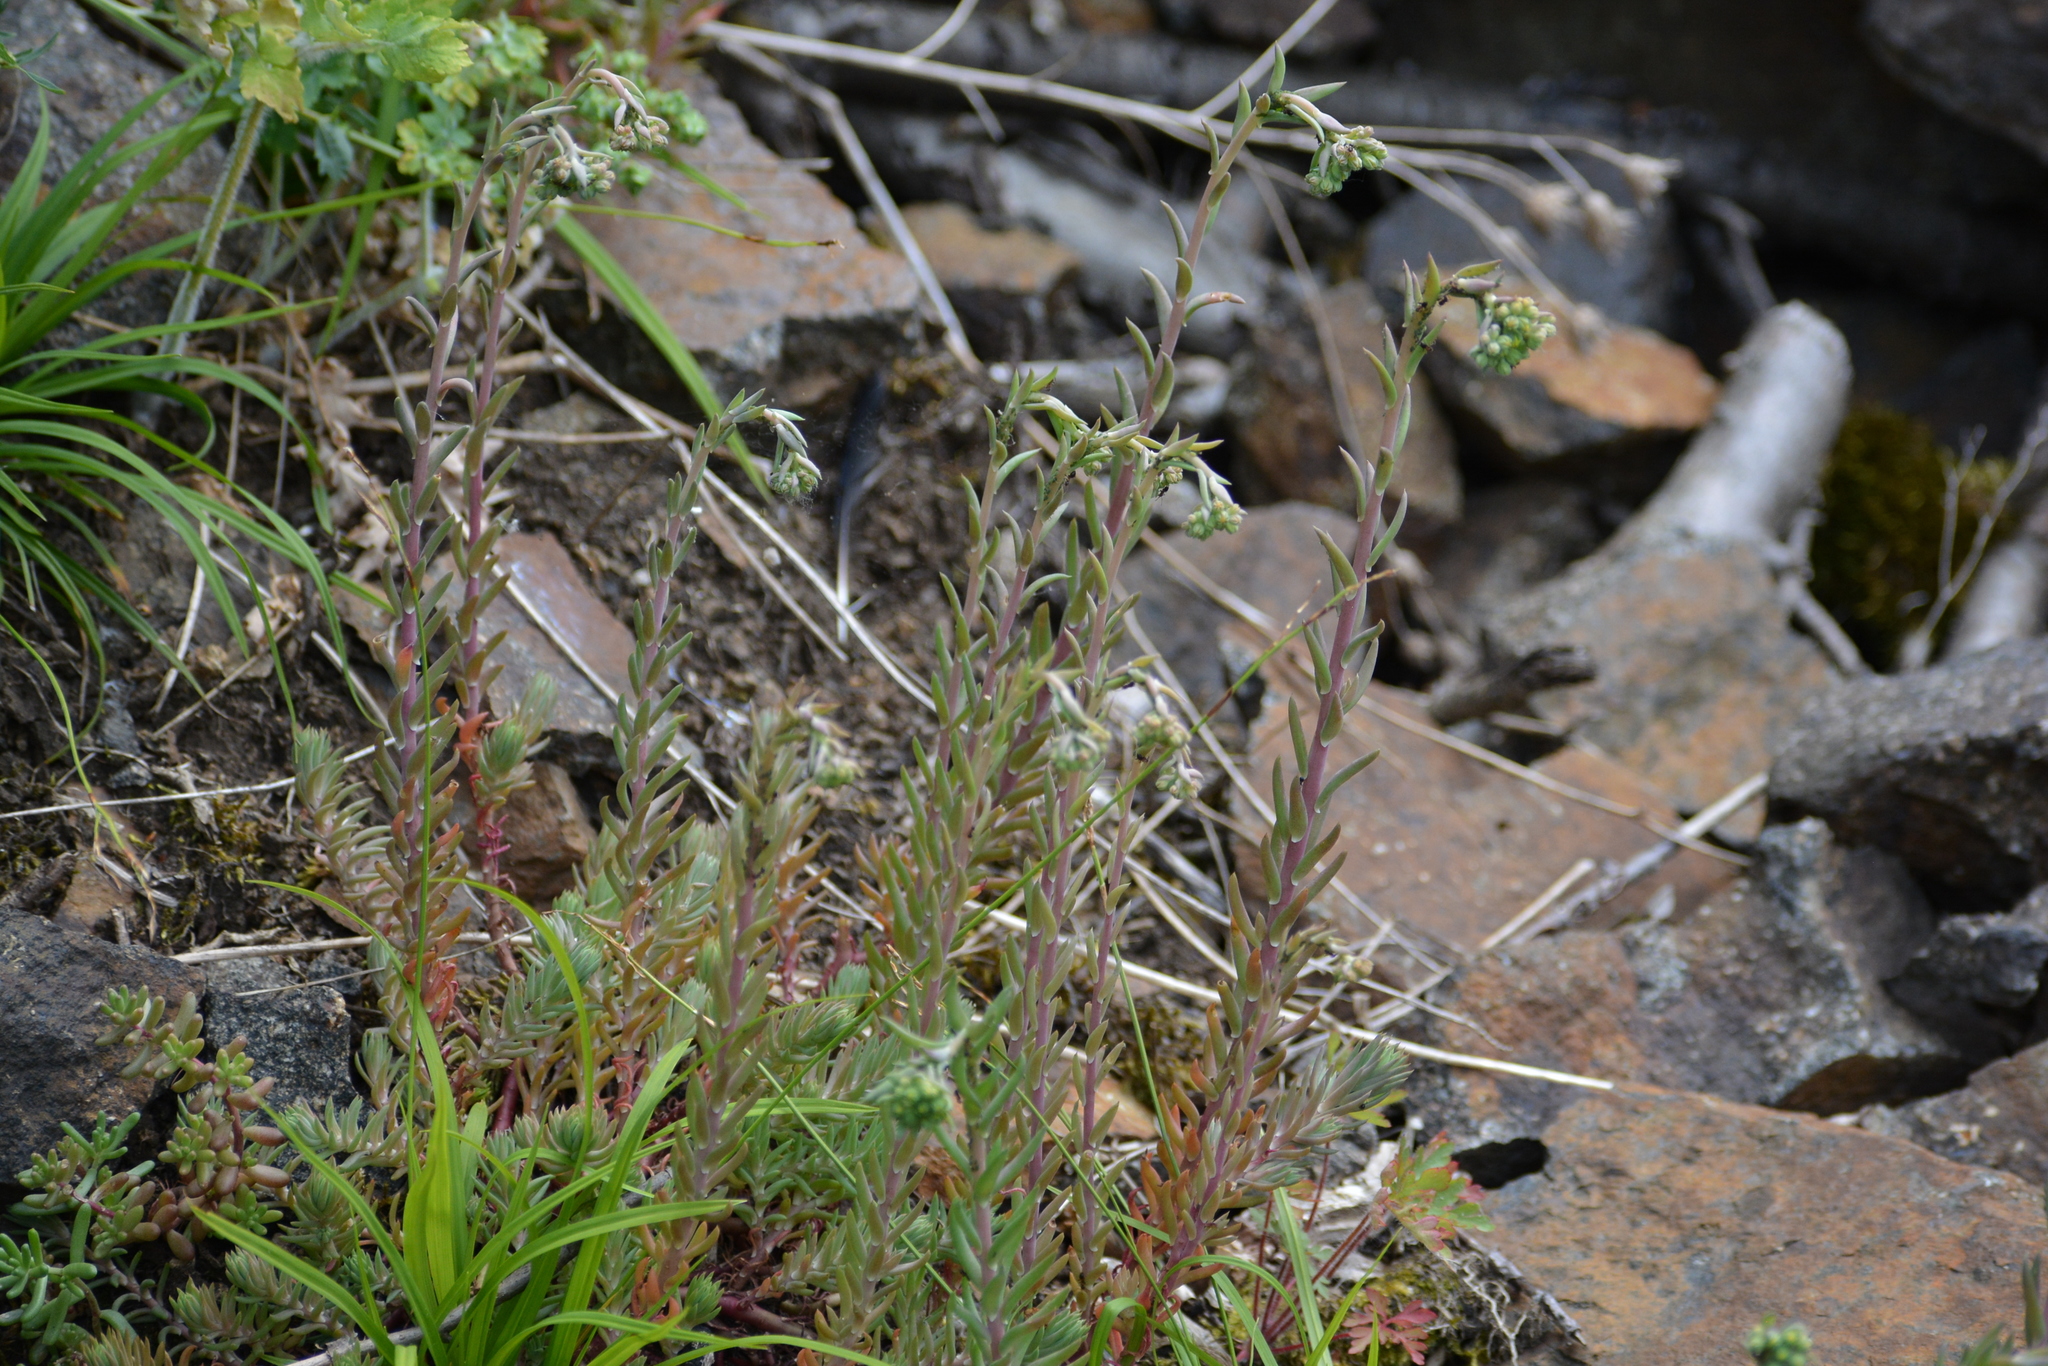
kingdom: Plantae
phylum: Tracheophyta
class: Magnoliopsida
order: Saxifragales
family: Crassulaceae
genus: Petrosedum
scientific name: Petrosedum rupestre
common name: Jenny's stonecrop
